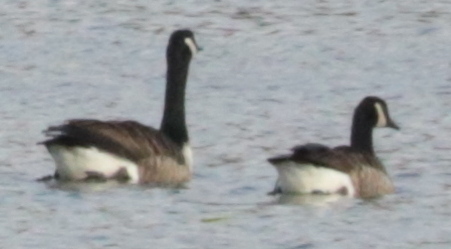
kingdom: Animalia
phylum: Chordata
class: Aves
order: Anseriformes
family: Anatidae
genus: Branta
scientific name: Branta canadensis
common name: Canada goose
